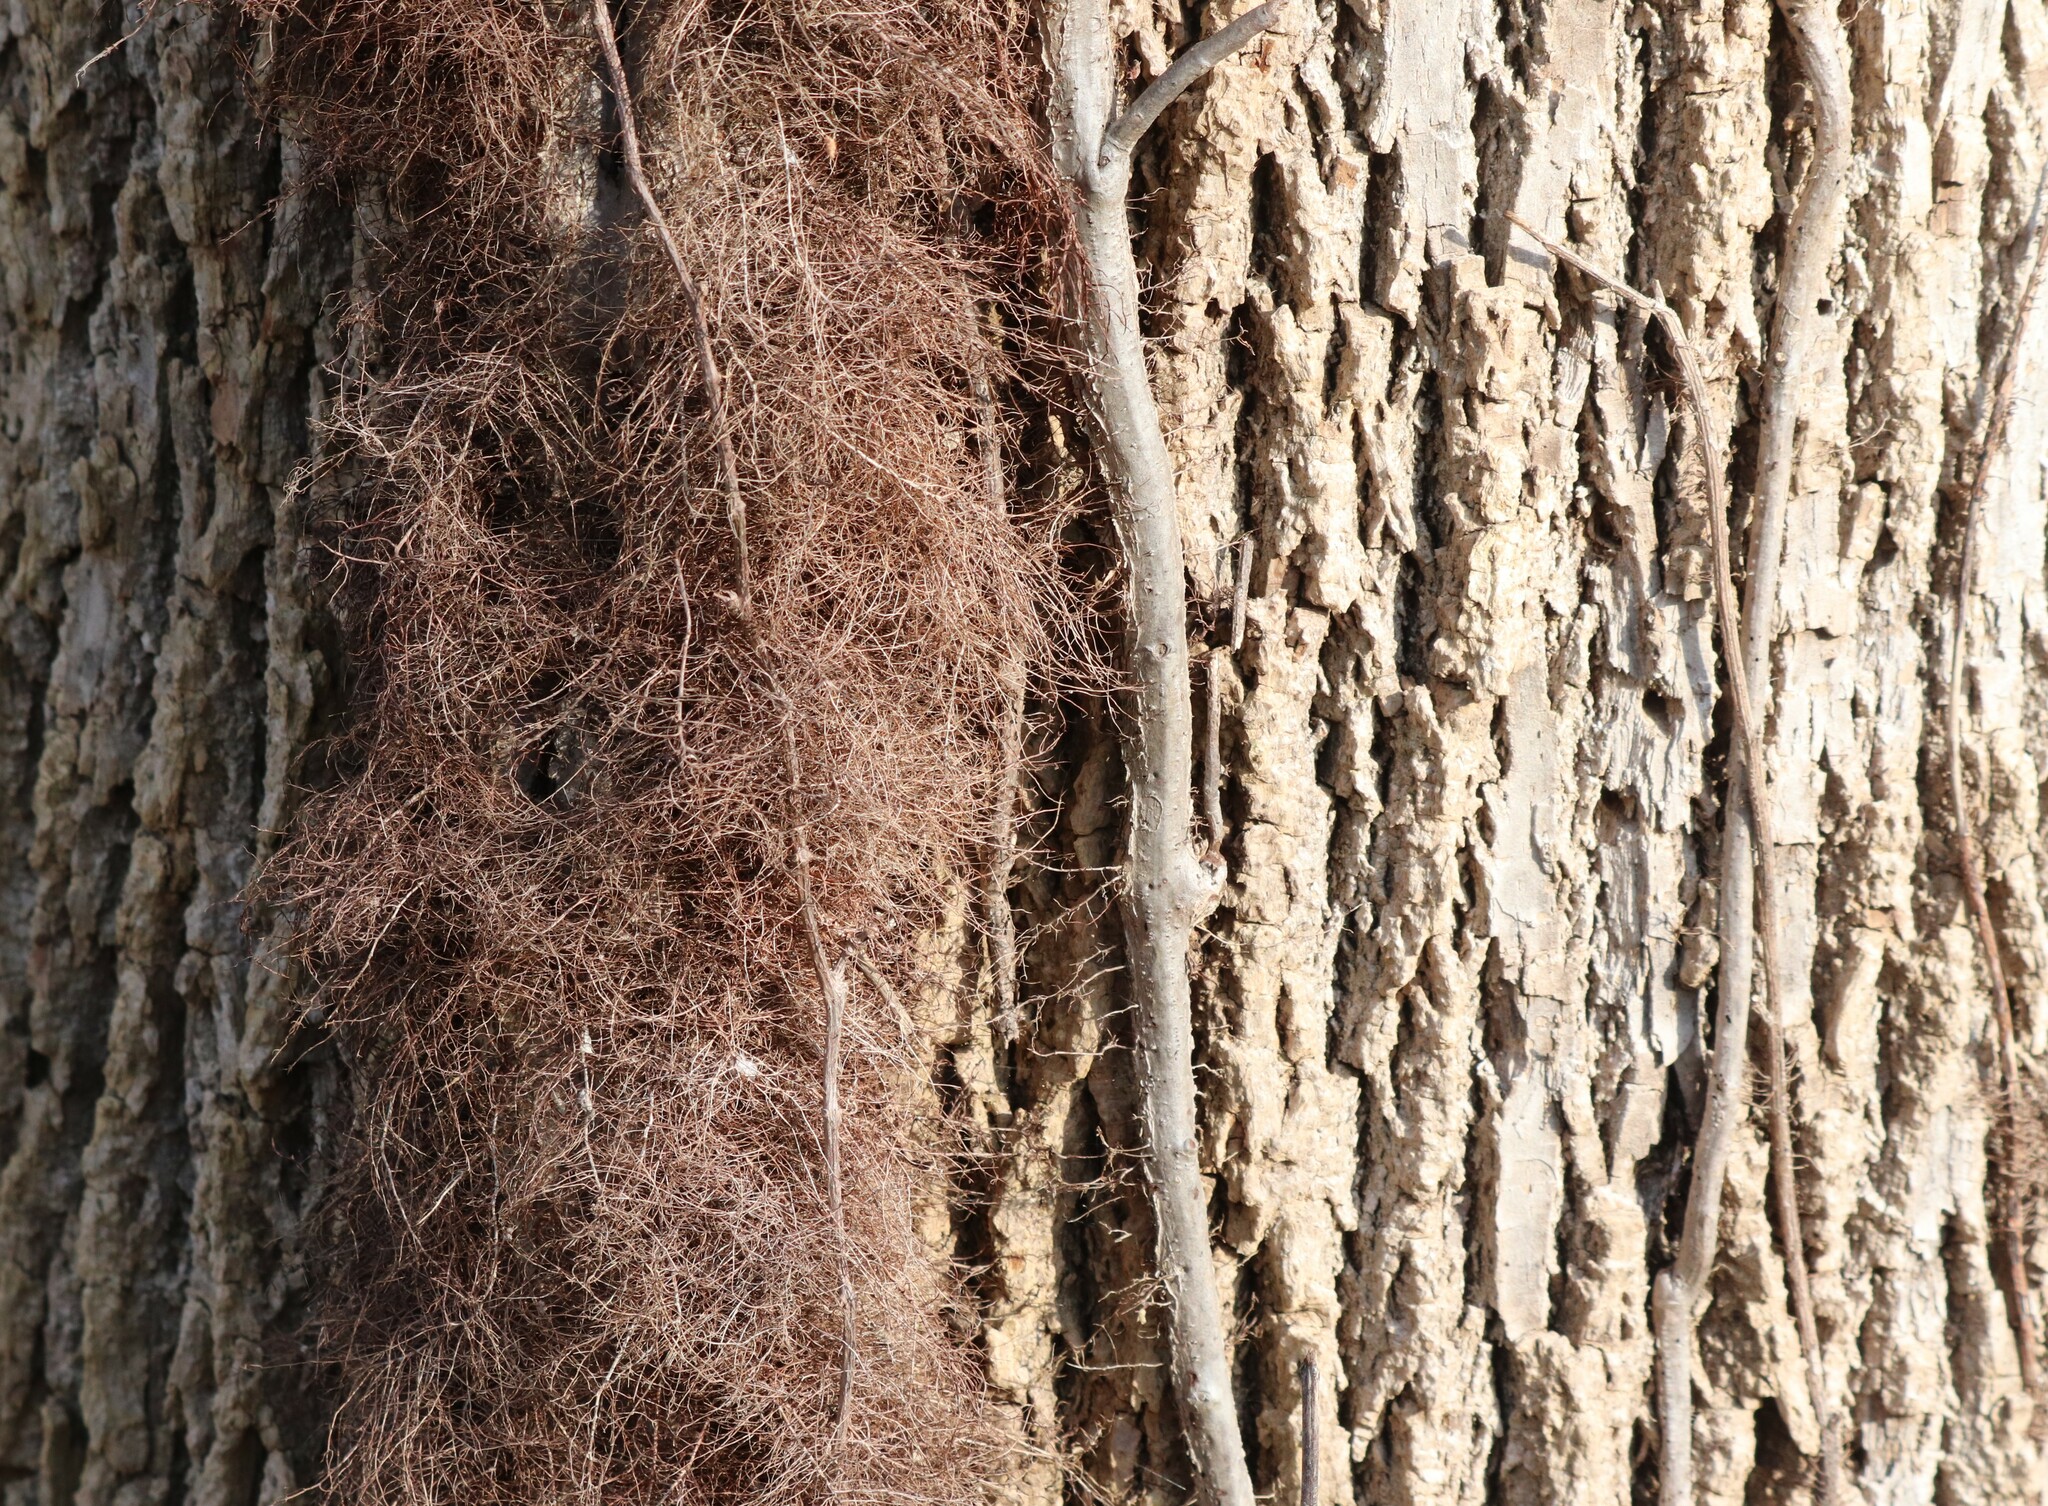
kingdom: Plantae
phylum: Tracheophyta
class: Magnoliopsida
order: Sapindales
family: Anacardiaceae
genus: Toxicodendron
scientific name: Toxicodendron radicans
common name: Poison ivy
